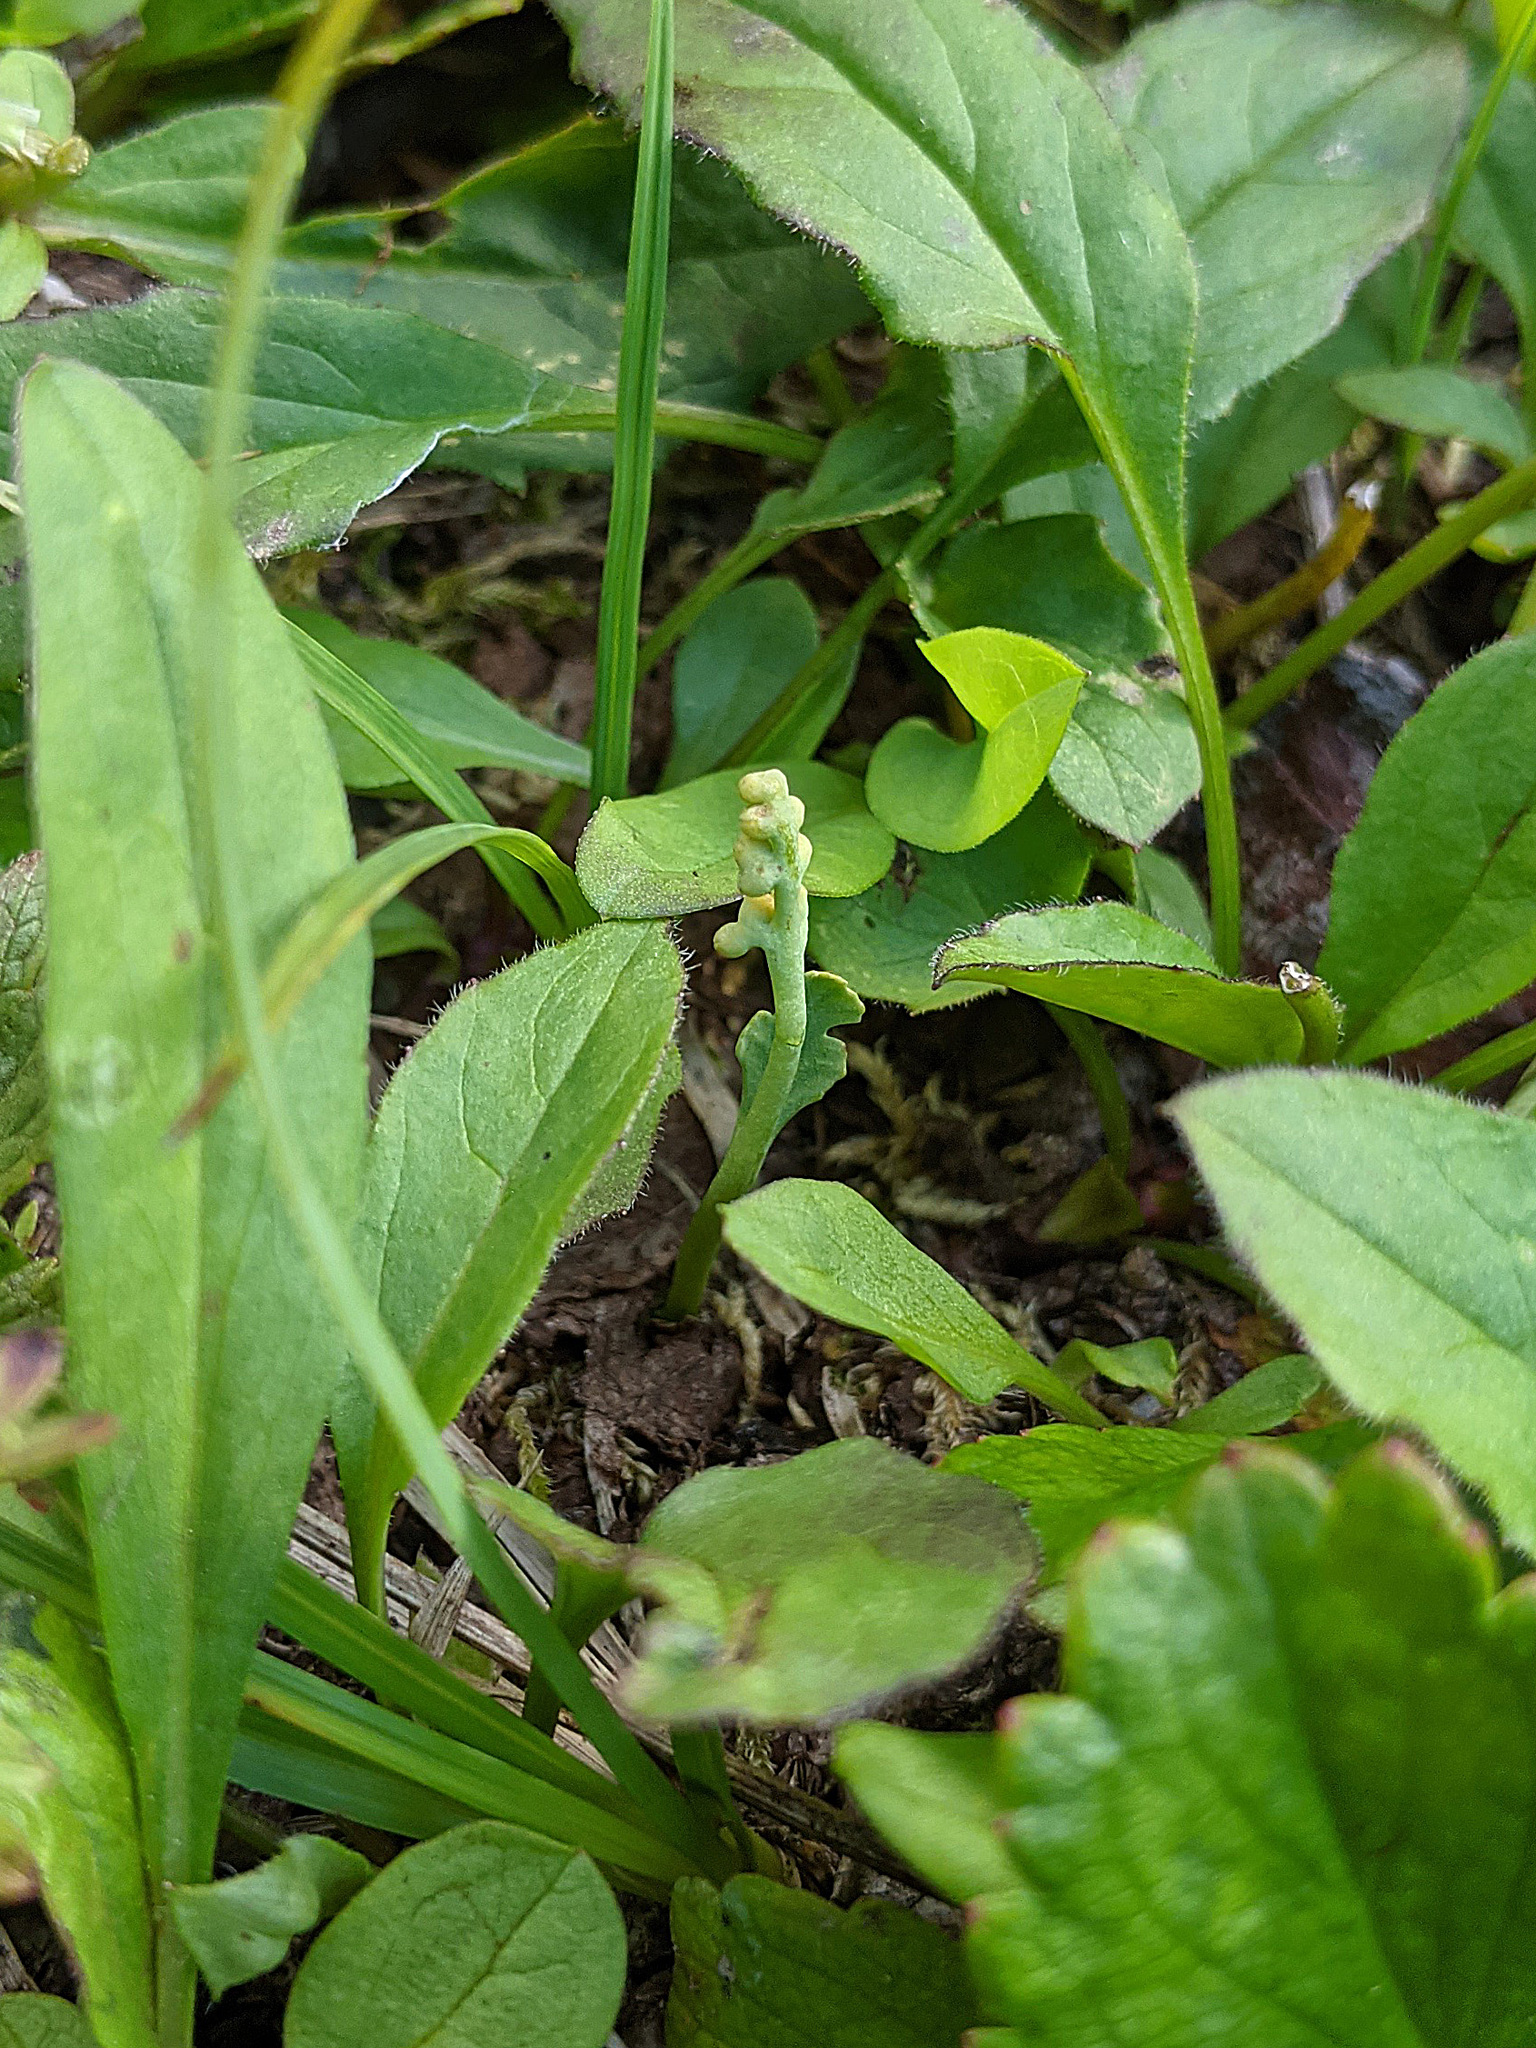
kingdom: Plantae
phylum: Tracheophyta
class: Polypodiopsida
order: Ophioglossales
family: Ophioglossaceae
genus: Botrychium
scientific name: Botrychium montanum
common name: Mountain moonwort
